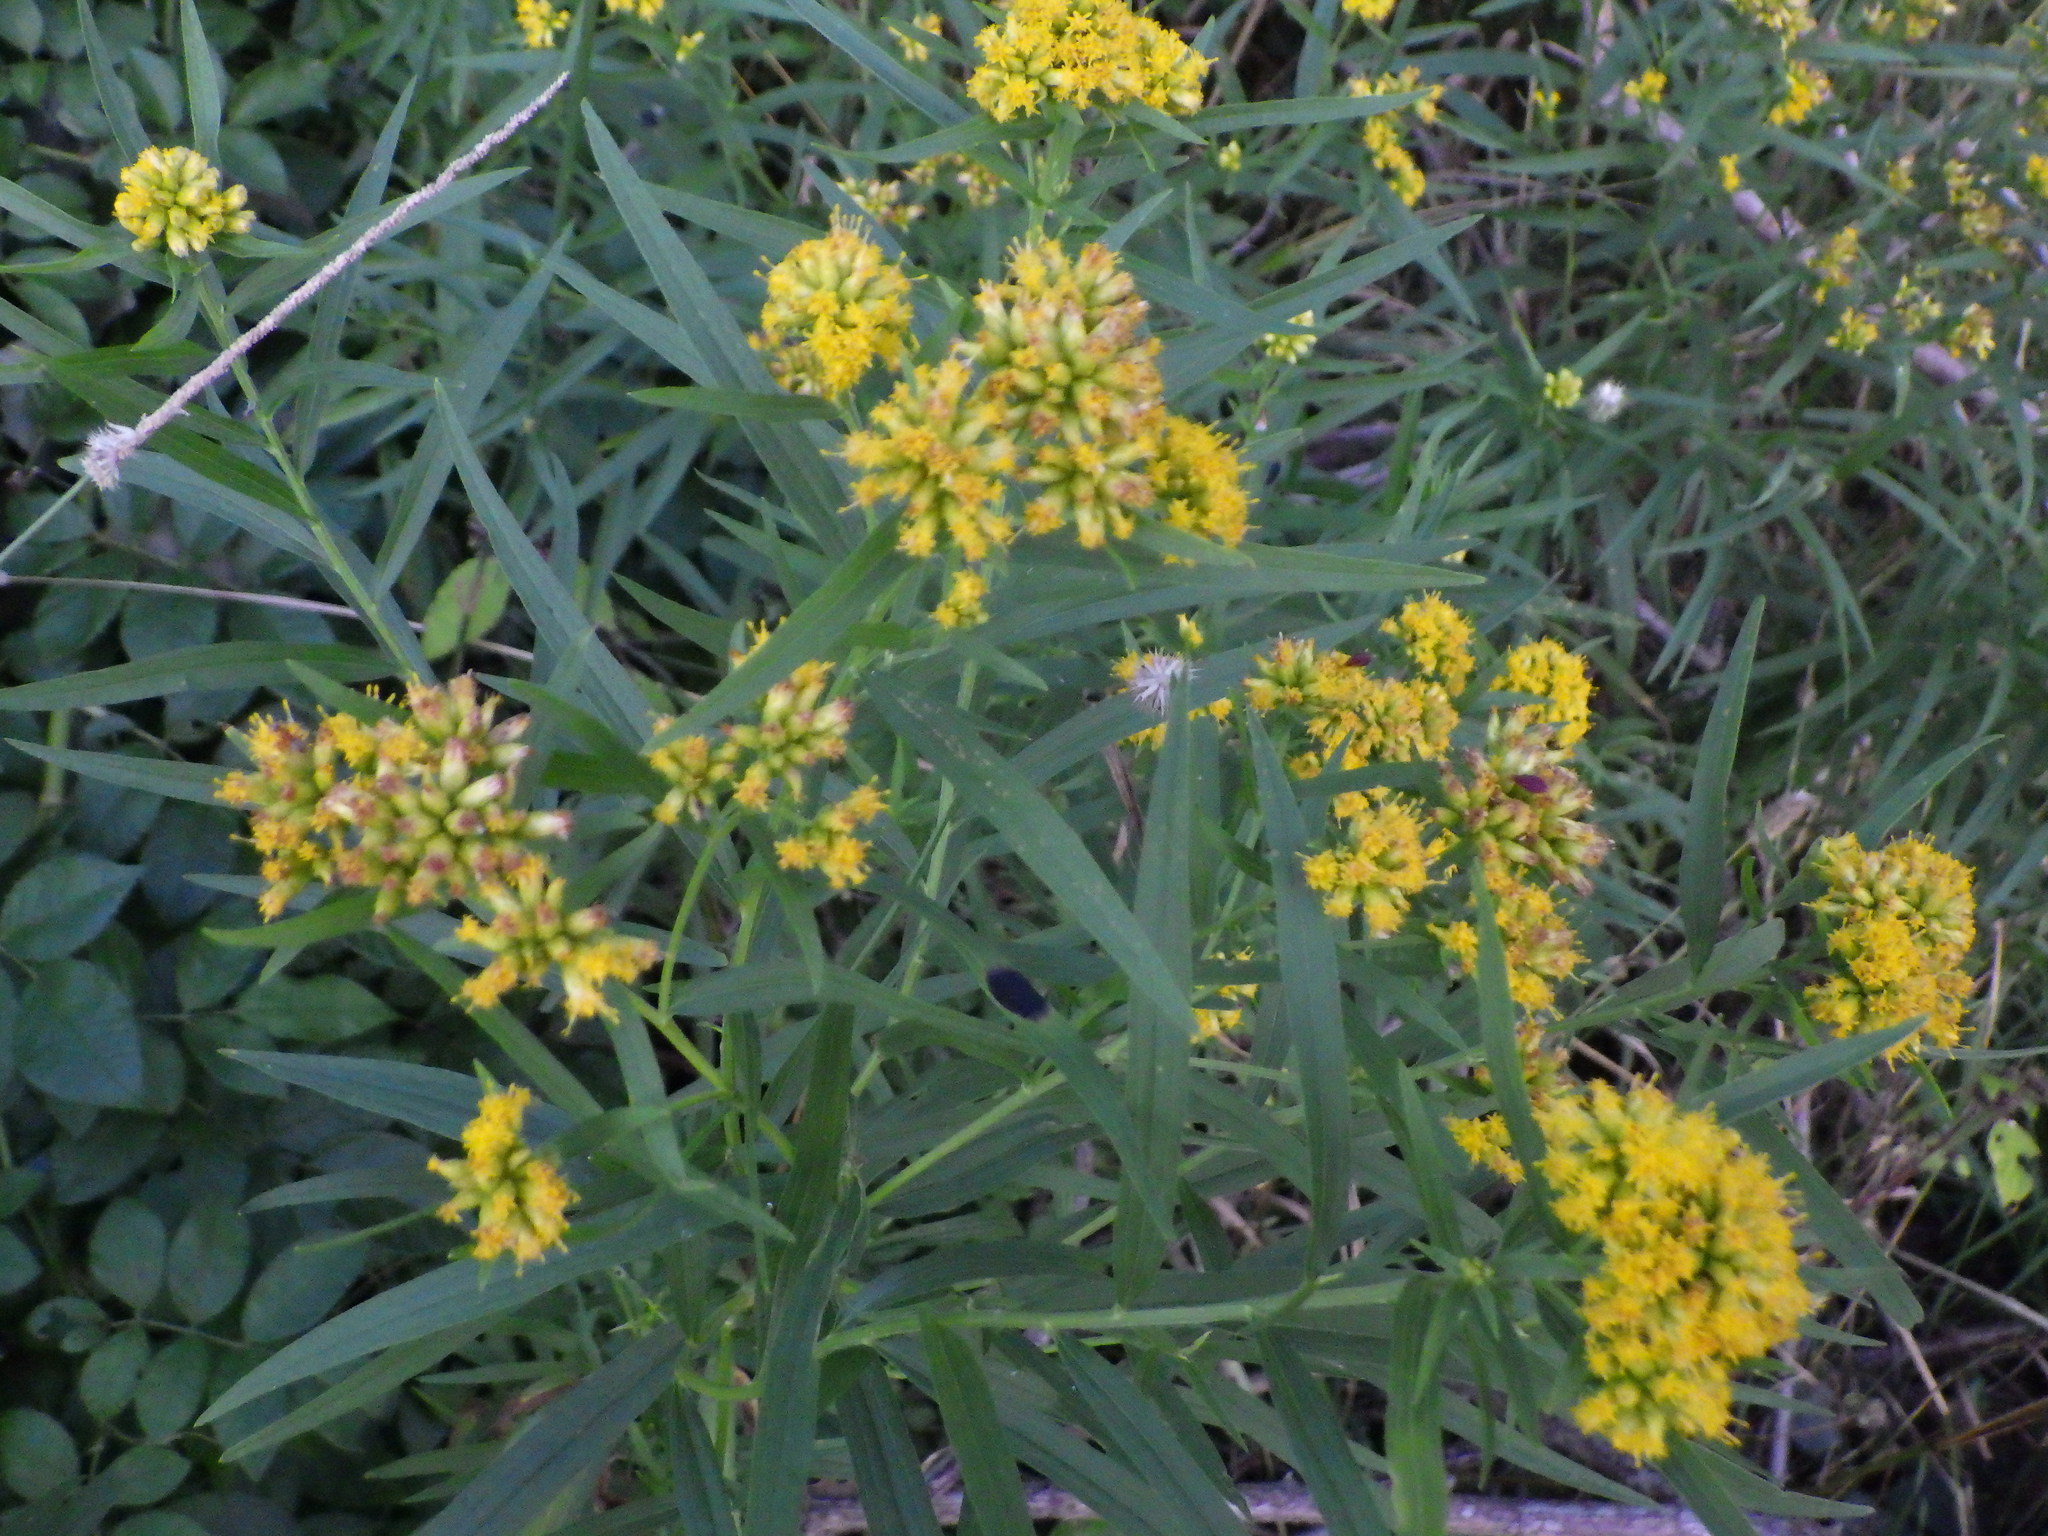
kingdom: Animalia
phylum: Arthropoda
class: Insecta
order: Diptera
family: Cecidomyiidae
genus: Asteromyia
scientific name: Asteromyia euthamiae
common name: Euthamia leaf gall midge
